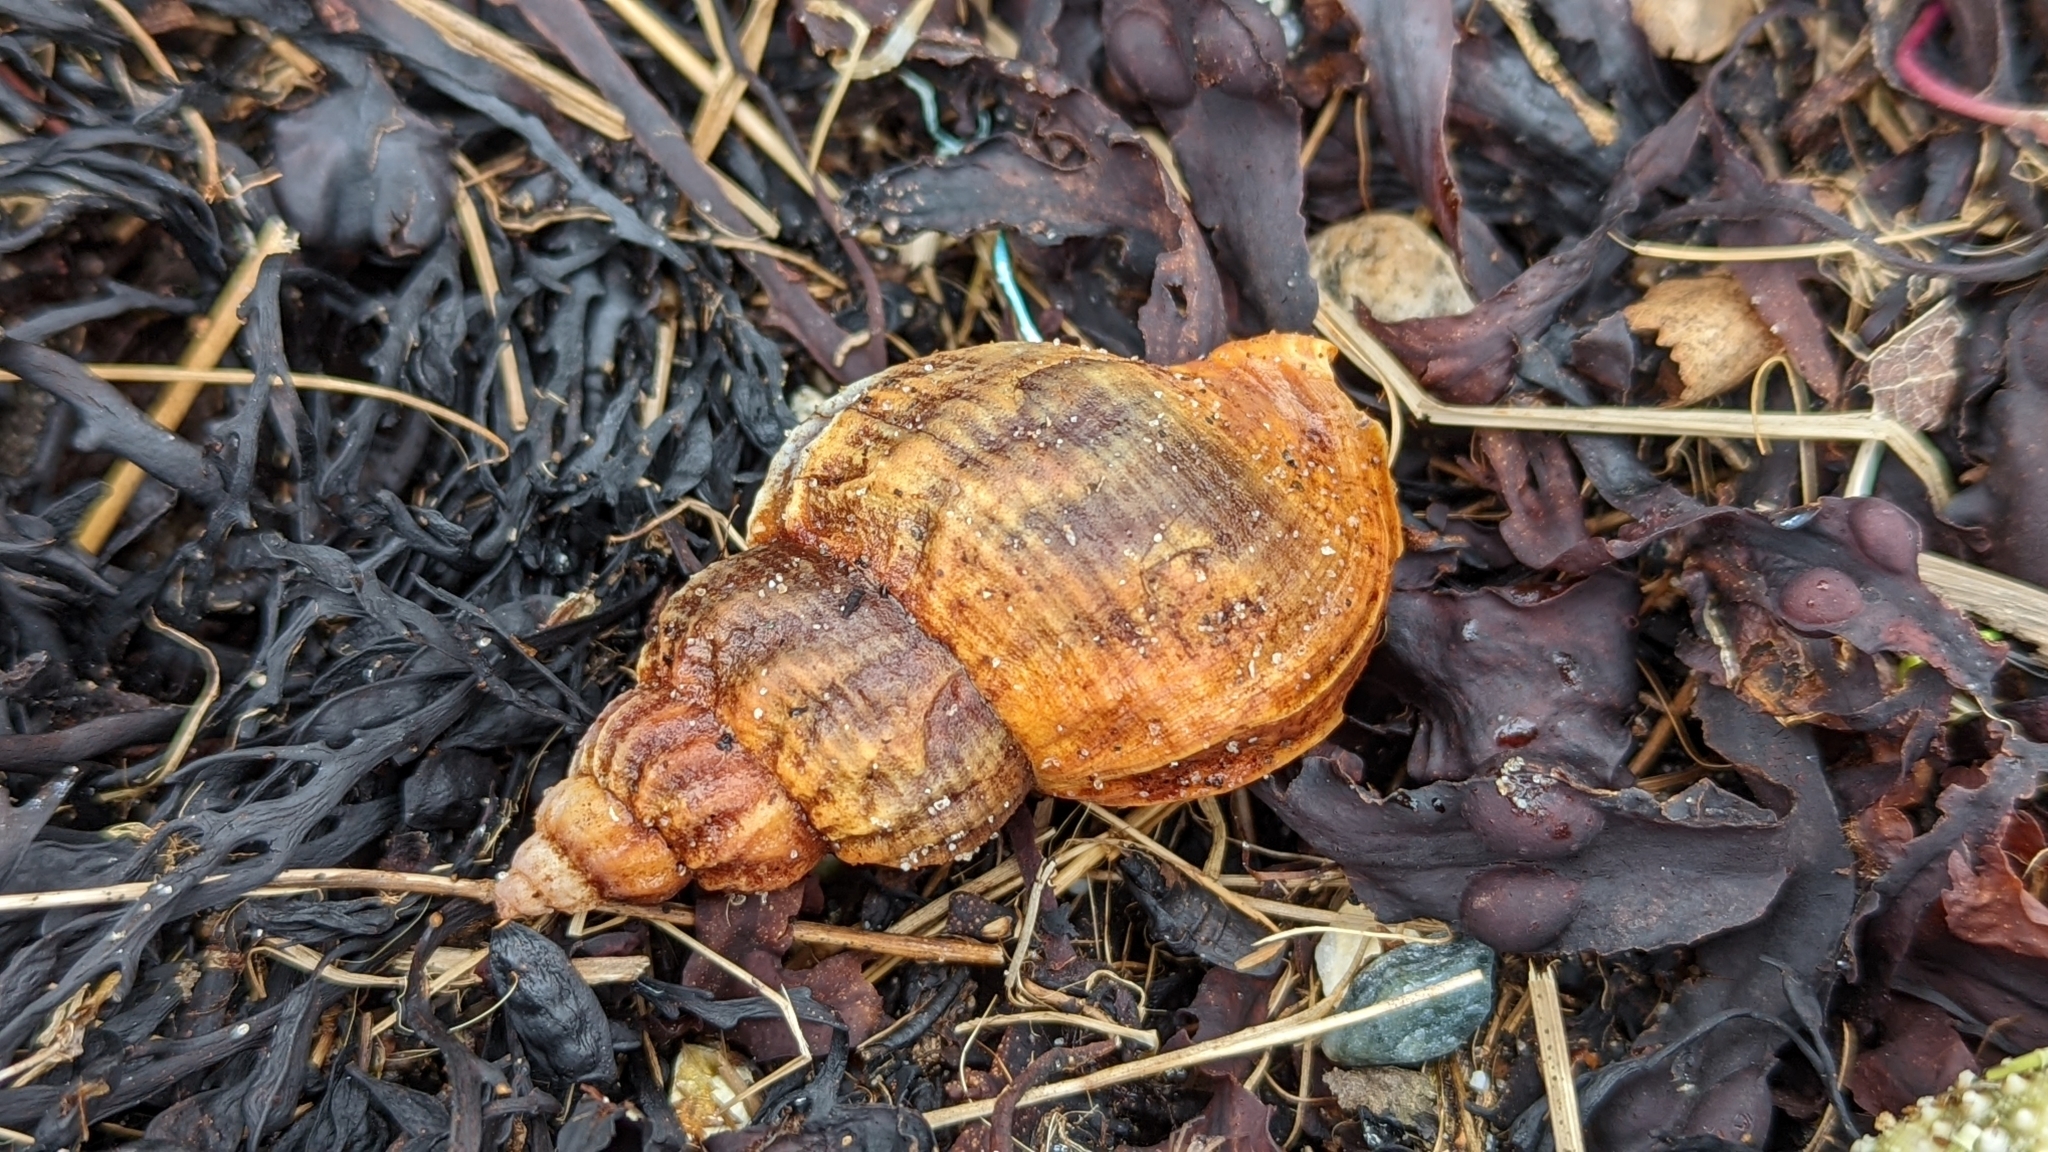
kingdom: Animalia
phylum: Mollusca
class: Gastropoda
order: Neogastropoda
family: Buccinidae
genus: Buccinum
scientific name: Buccinum undatum
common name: Common whelk
